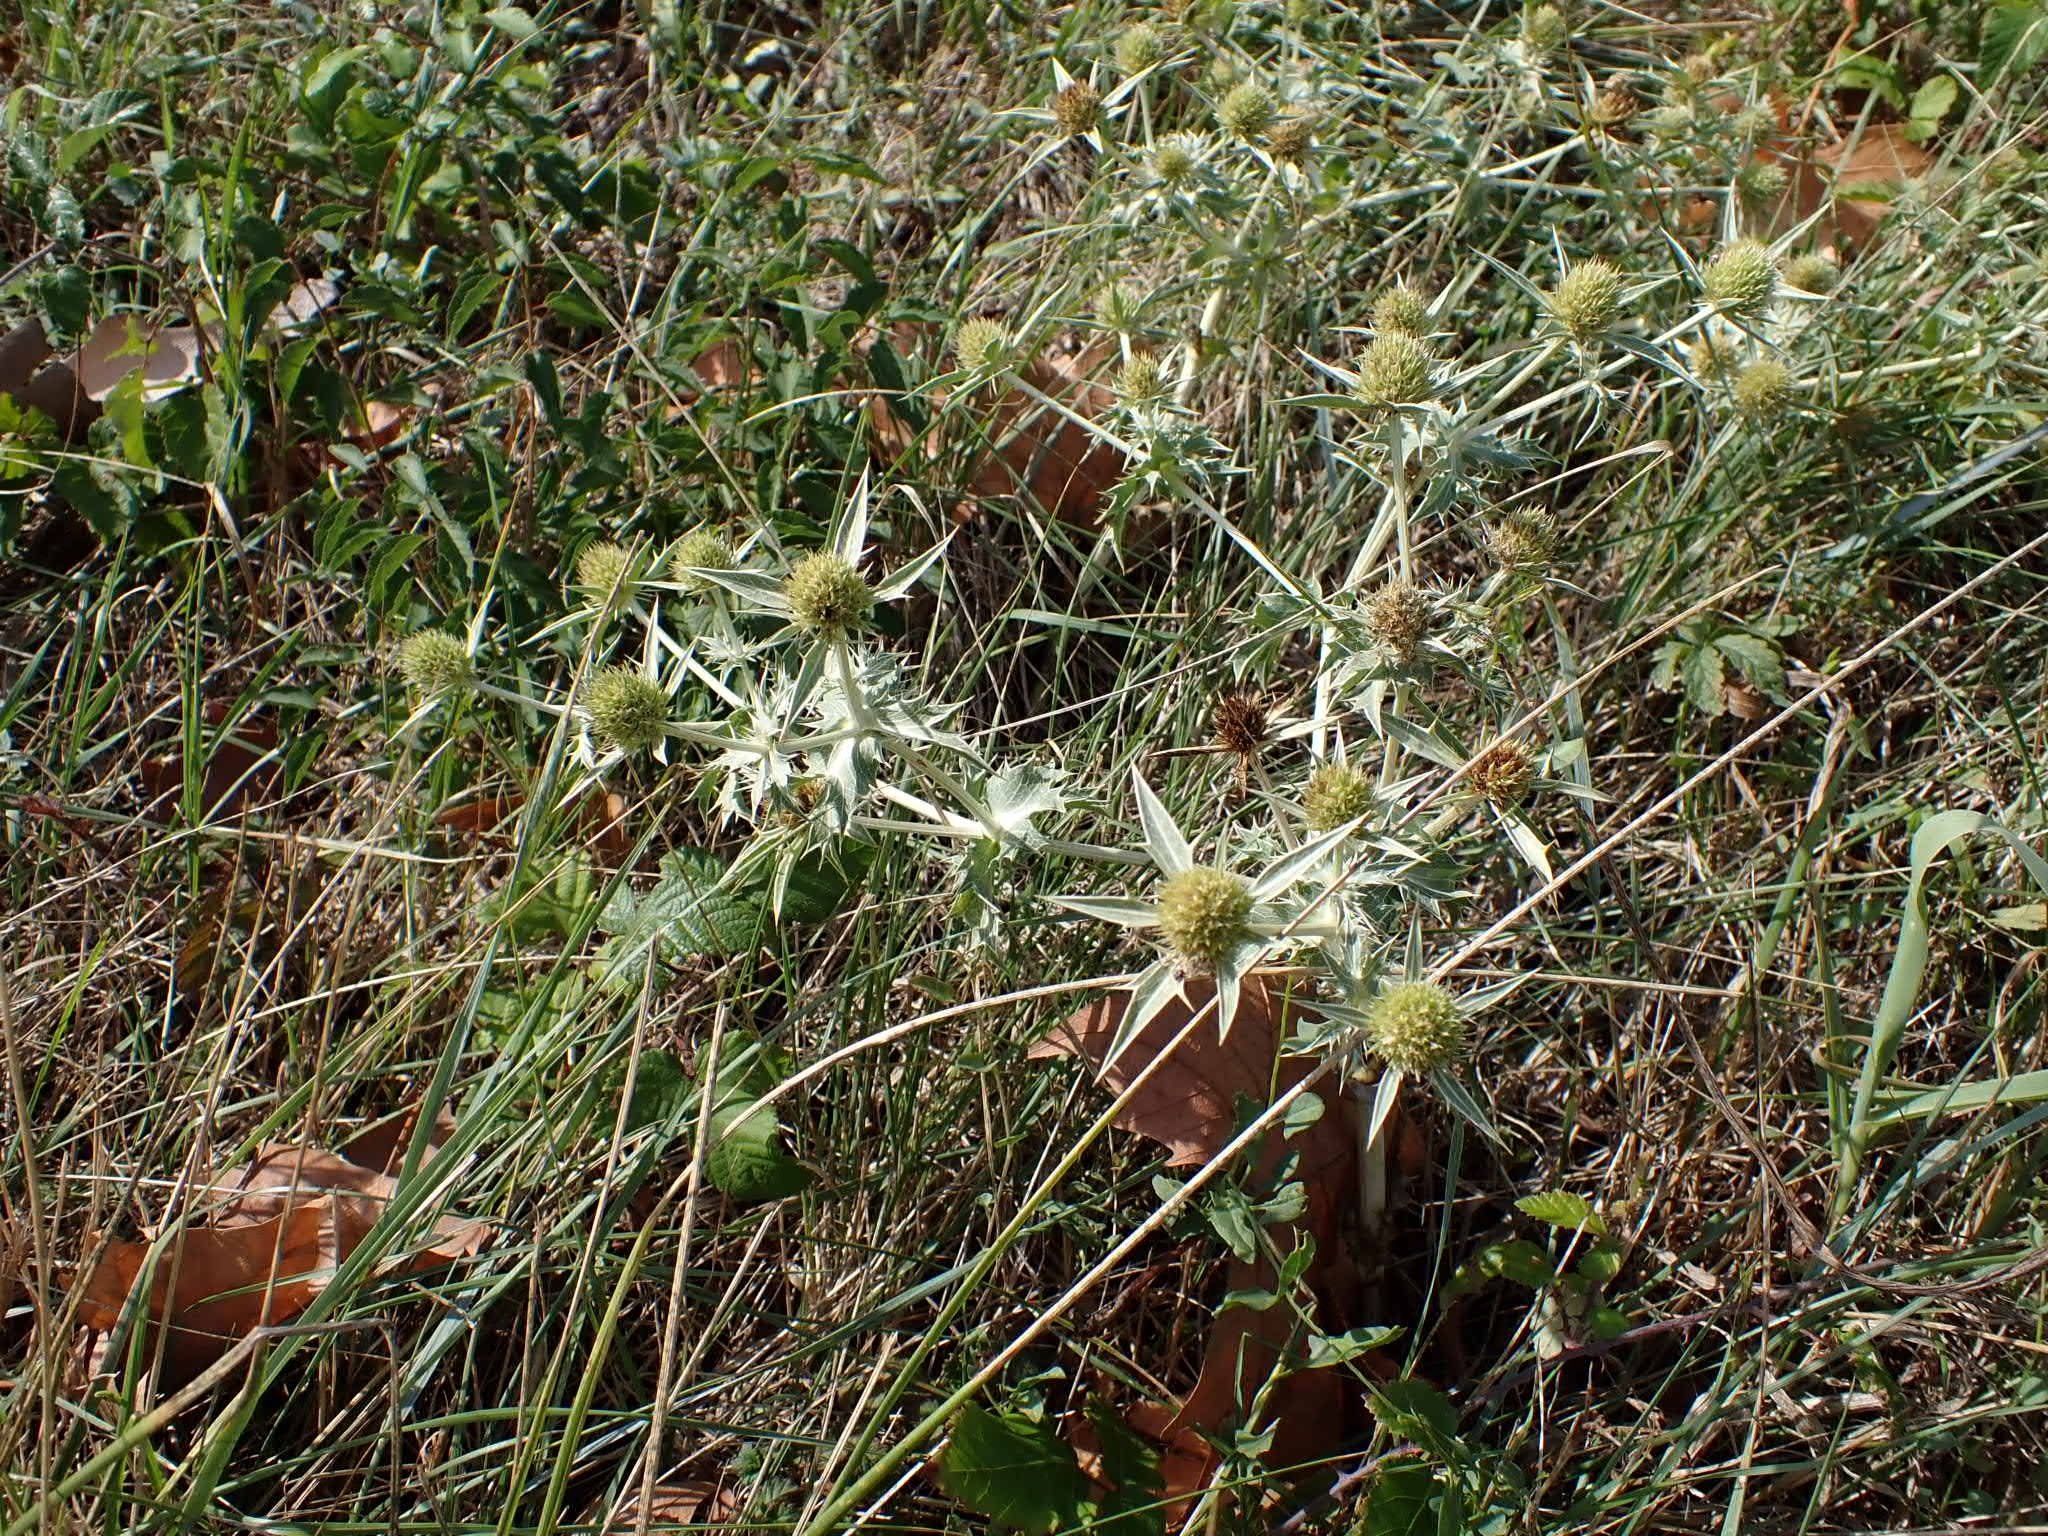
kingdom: Plantae
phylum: Tracheophyta
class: Magnoliopsida
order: Apiales
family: Apiaceae
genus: Eryngium
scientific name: Eryngium campestre
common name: Field eryngo
